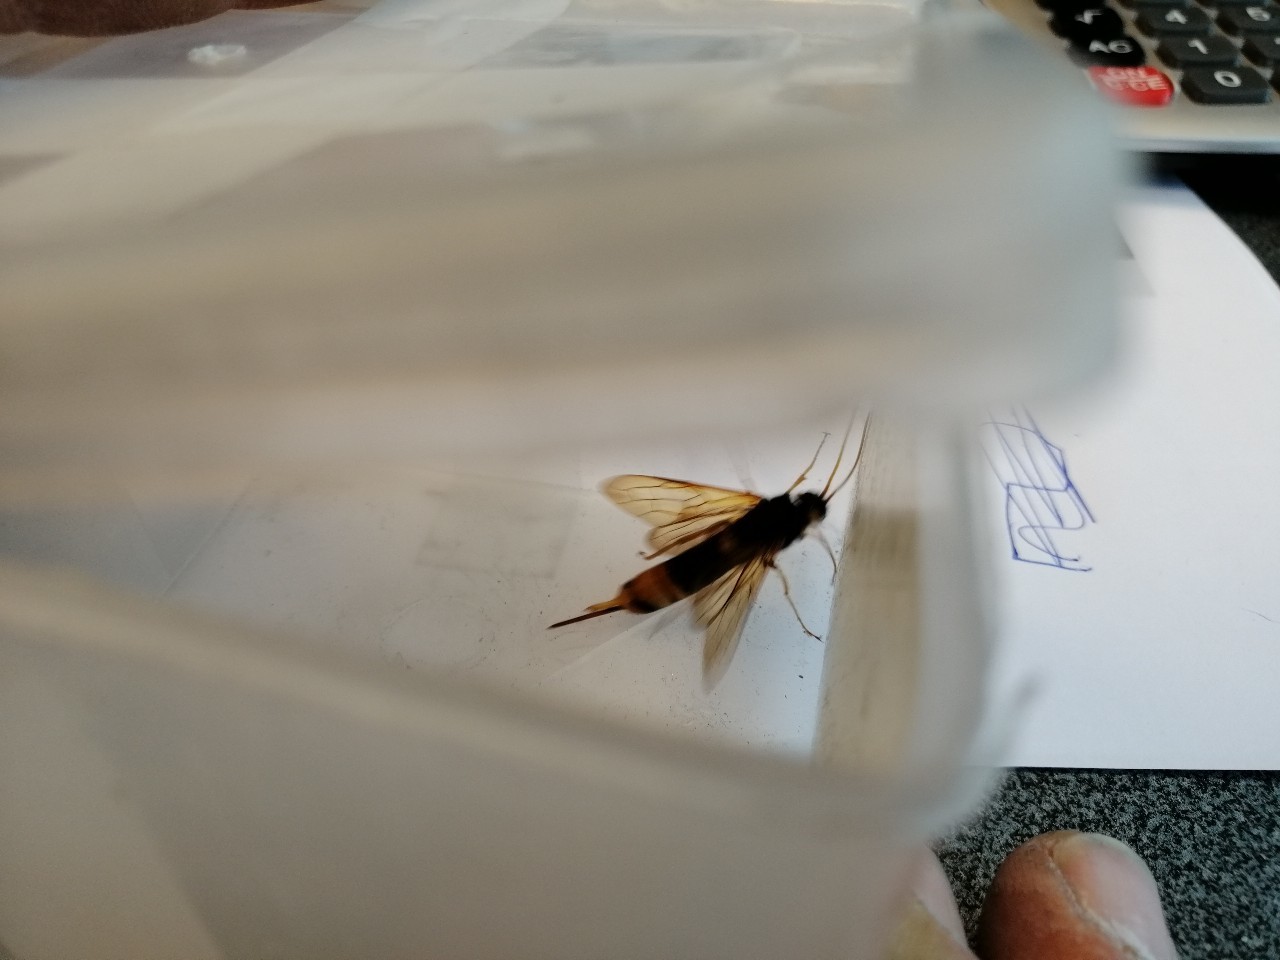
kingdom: Animalia
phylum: Arthropoda
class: Insecta
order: Hymenoptera
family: Siricidae
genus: Urocerus
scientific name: Urocerus gigas
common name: Giant woodwasp
